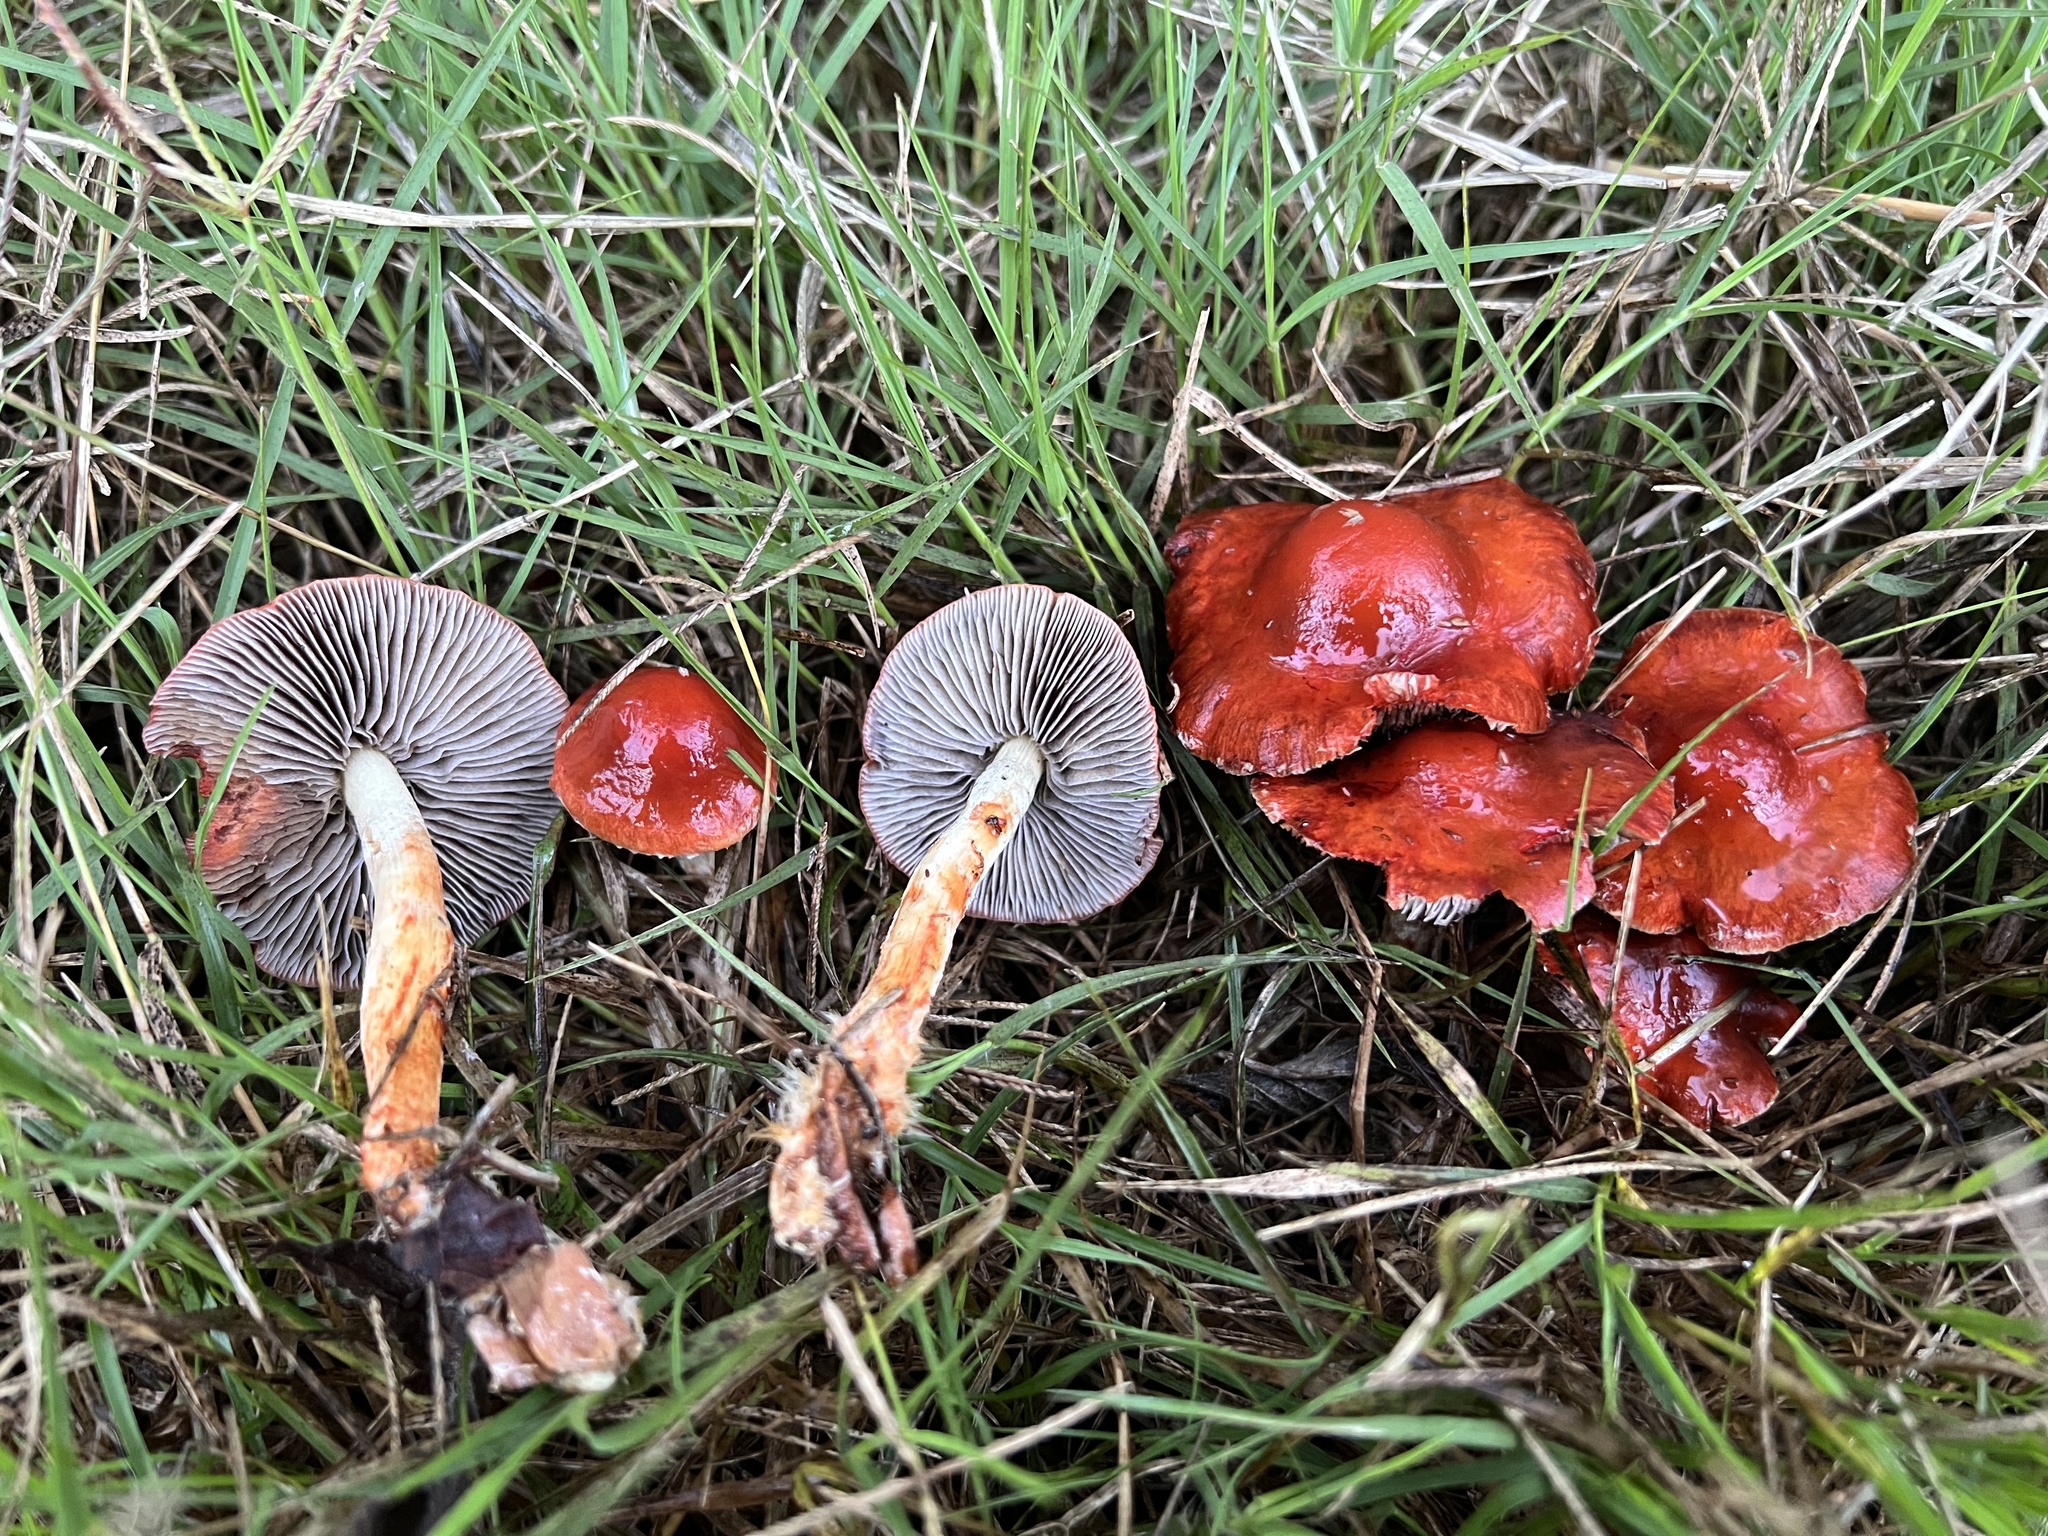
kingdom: Fungi
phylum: Basidiomycota
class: Agaricomycetes
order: Agaricales
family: Strophariaceae
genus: Leratiomyces
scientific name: Leratiomyces ceres
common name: Redlead roundhead
